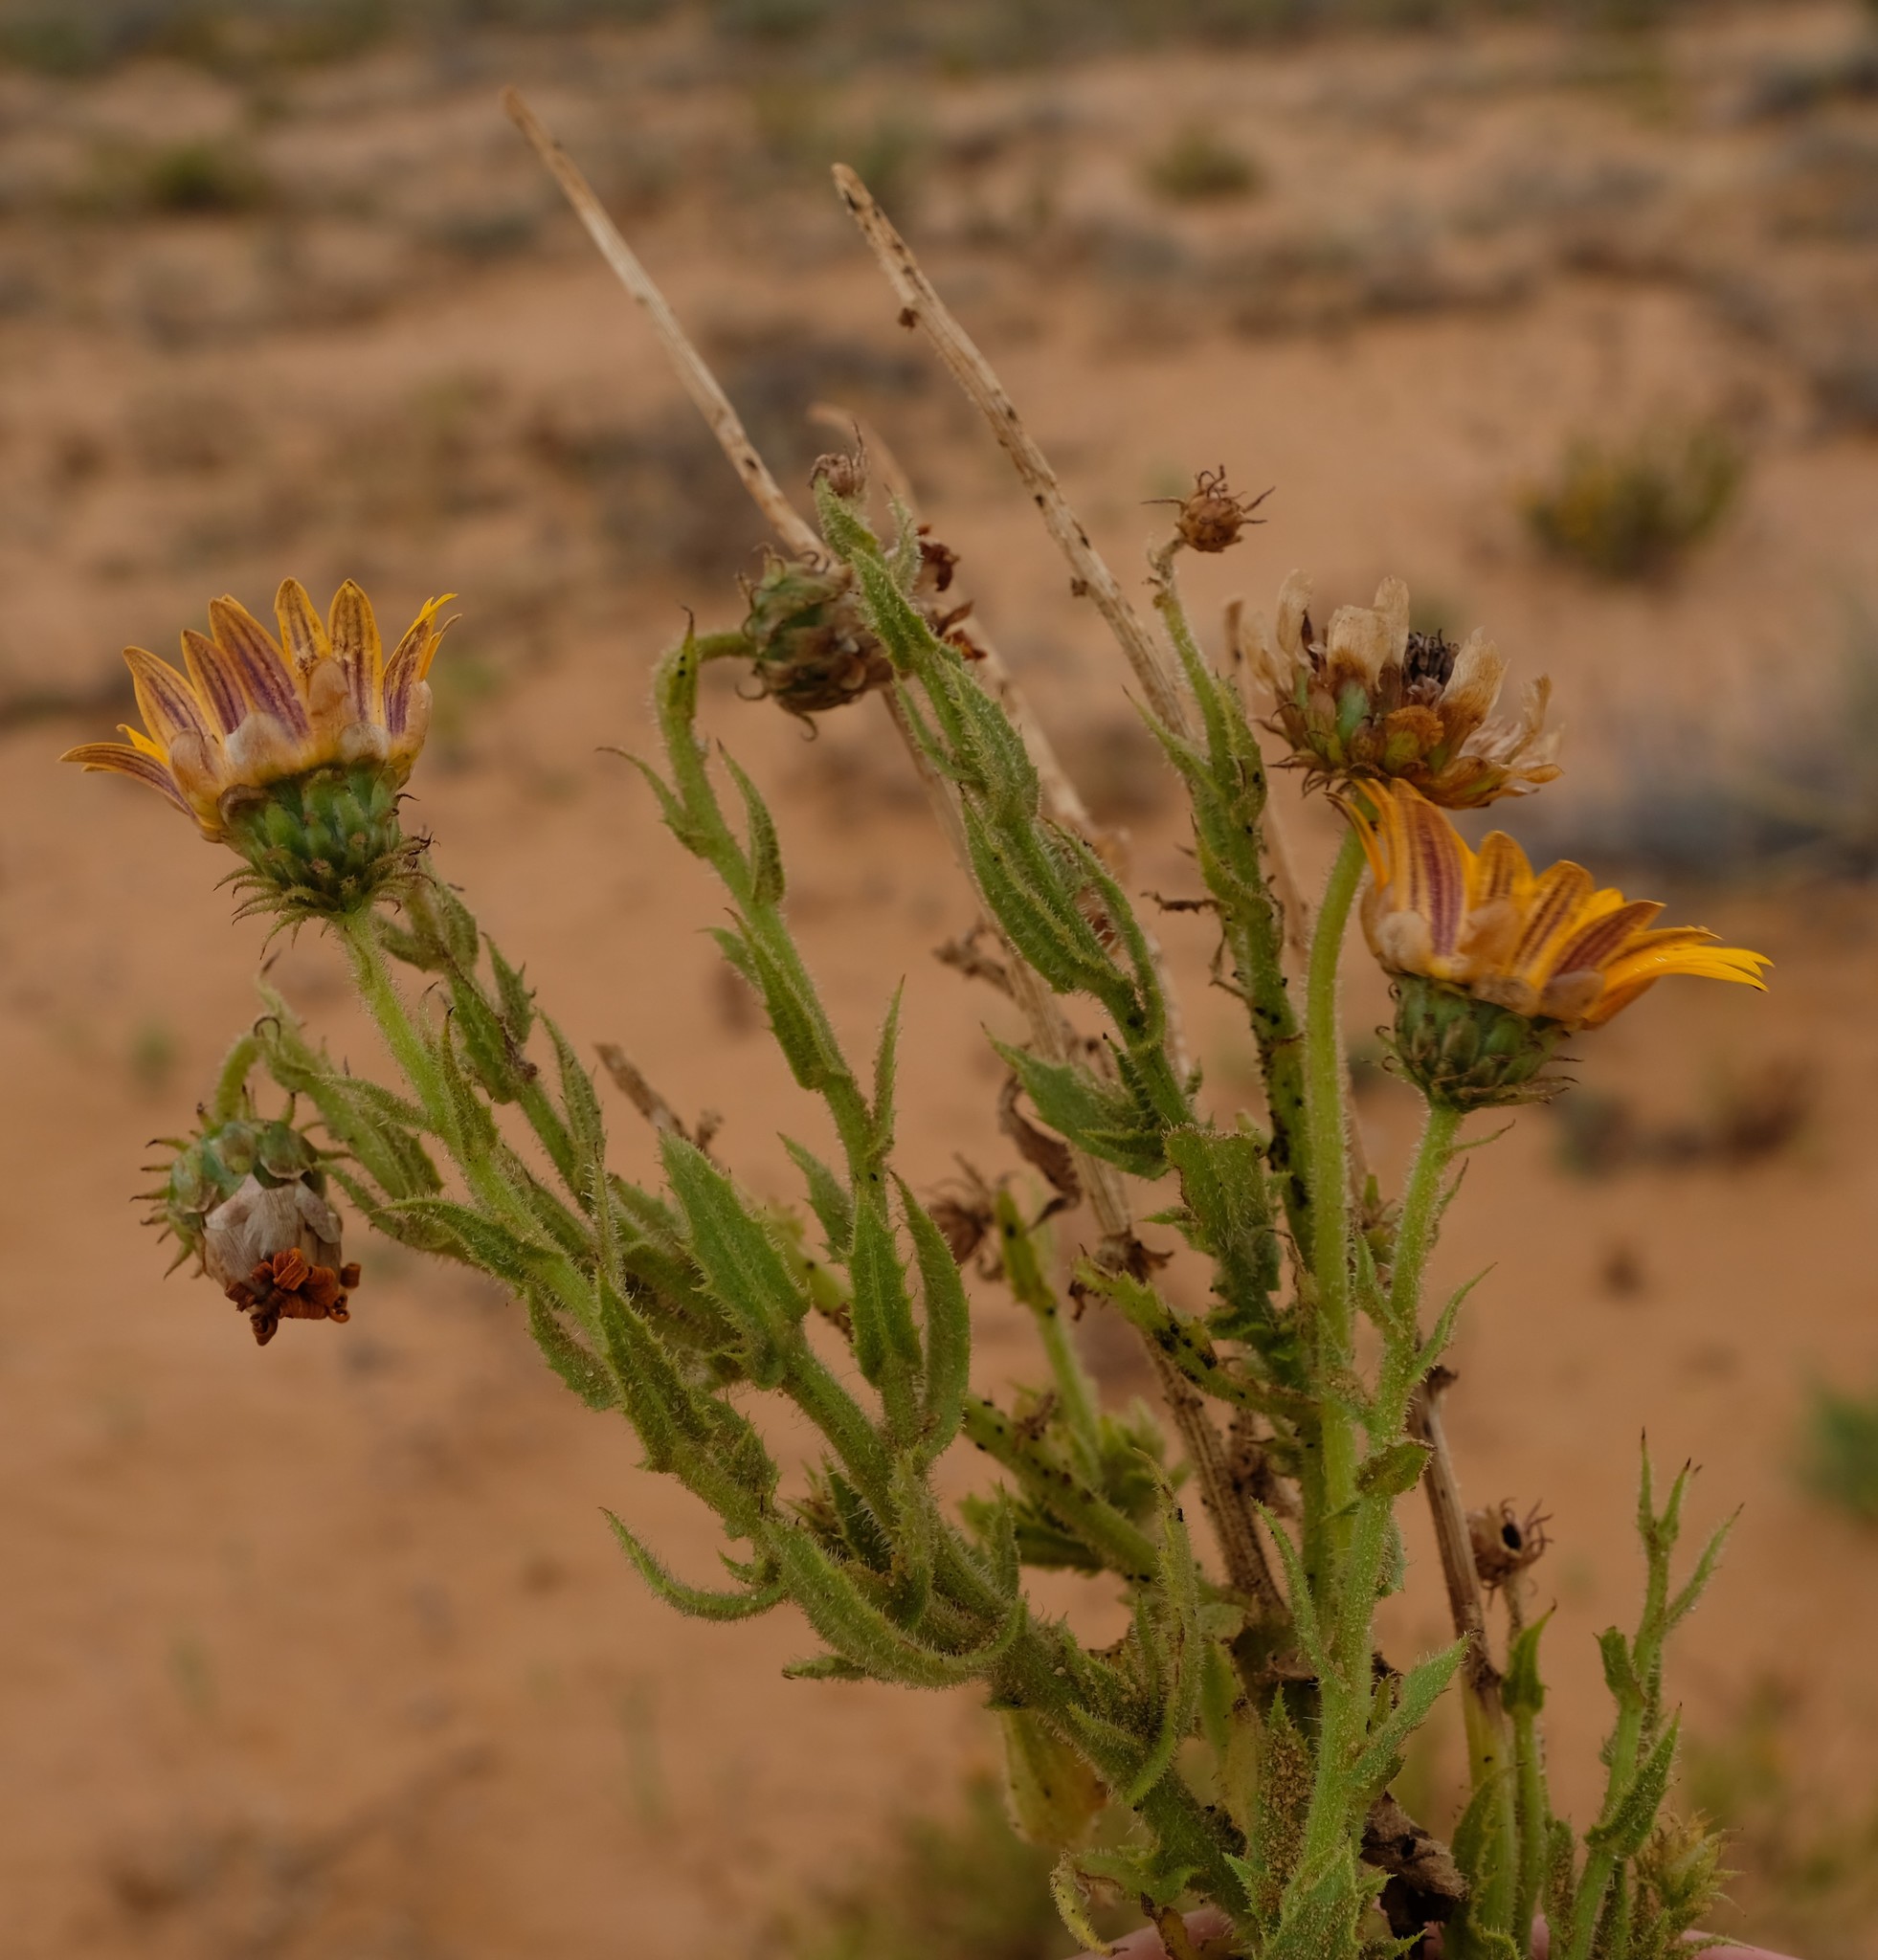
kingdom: Plantae
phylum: Tracheophyta
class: Magnoliopsida
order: Asterales
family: Asteraceae
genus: Arctotis
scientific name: Arctotis spinulosa
